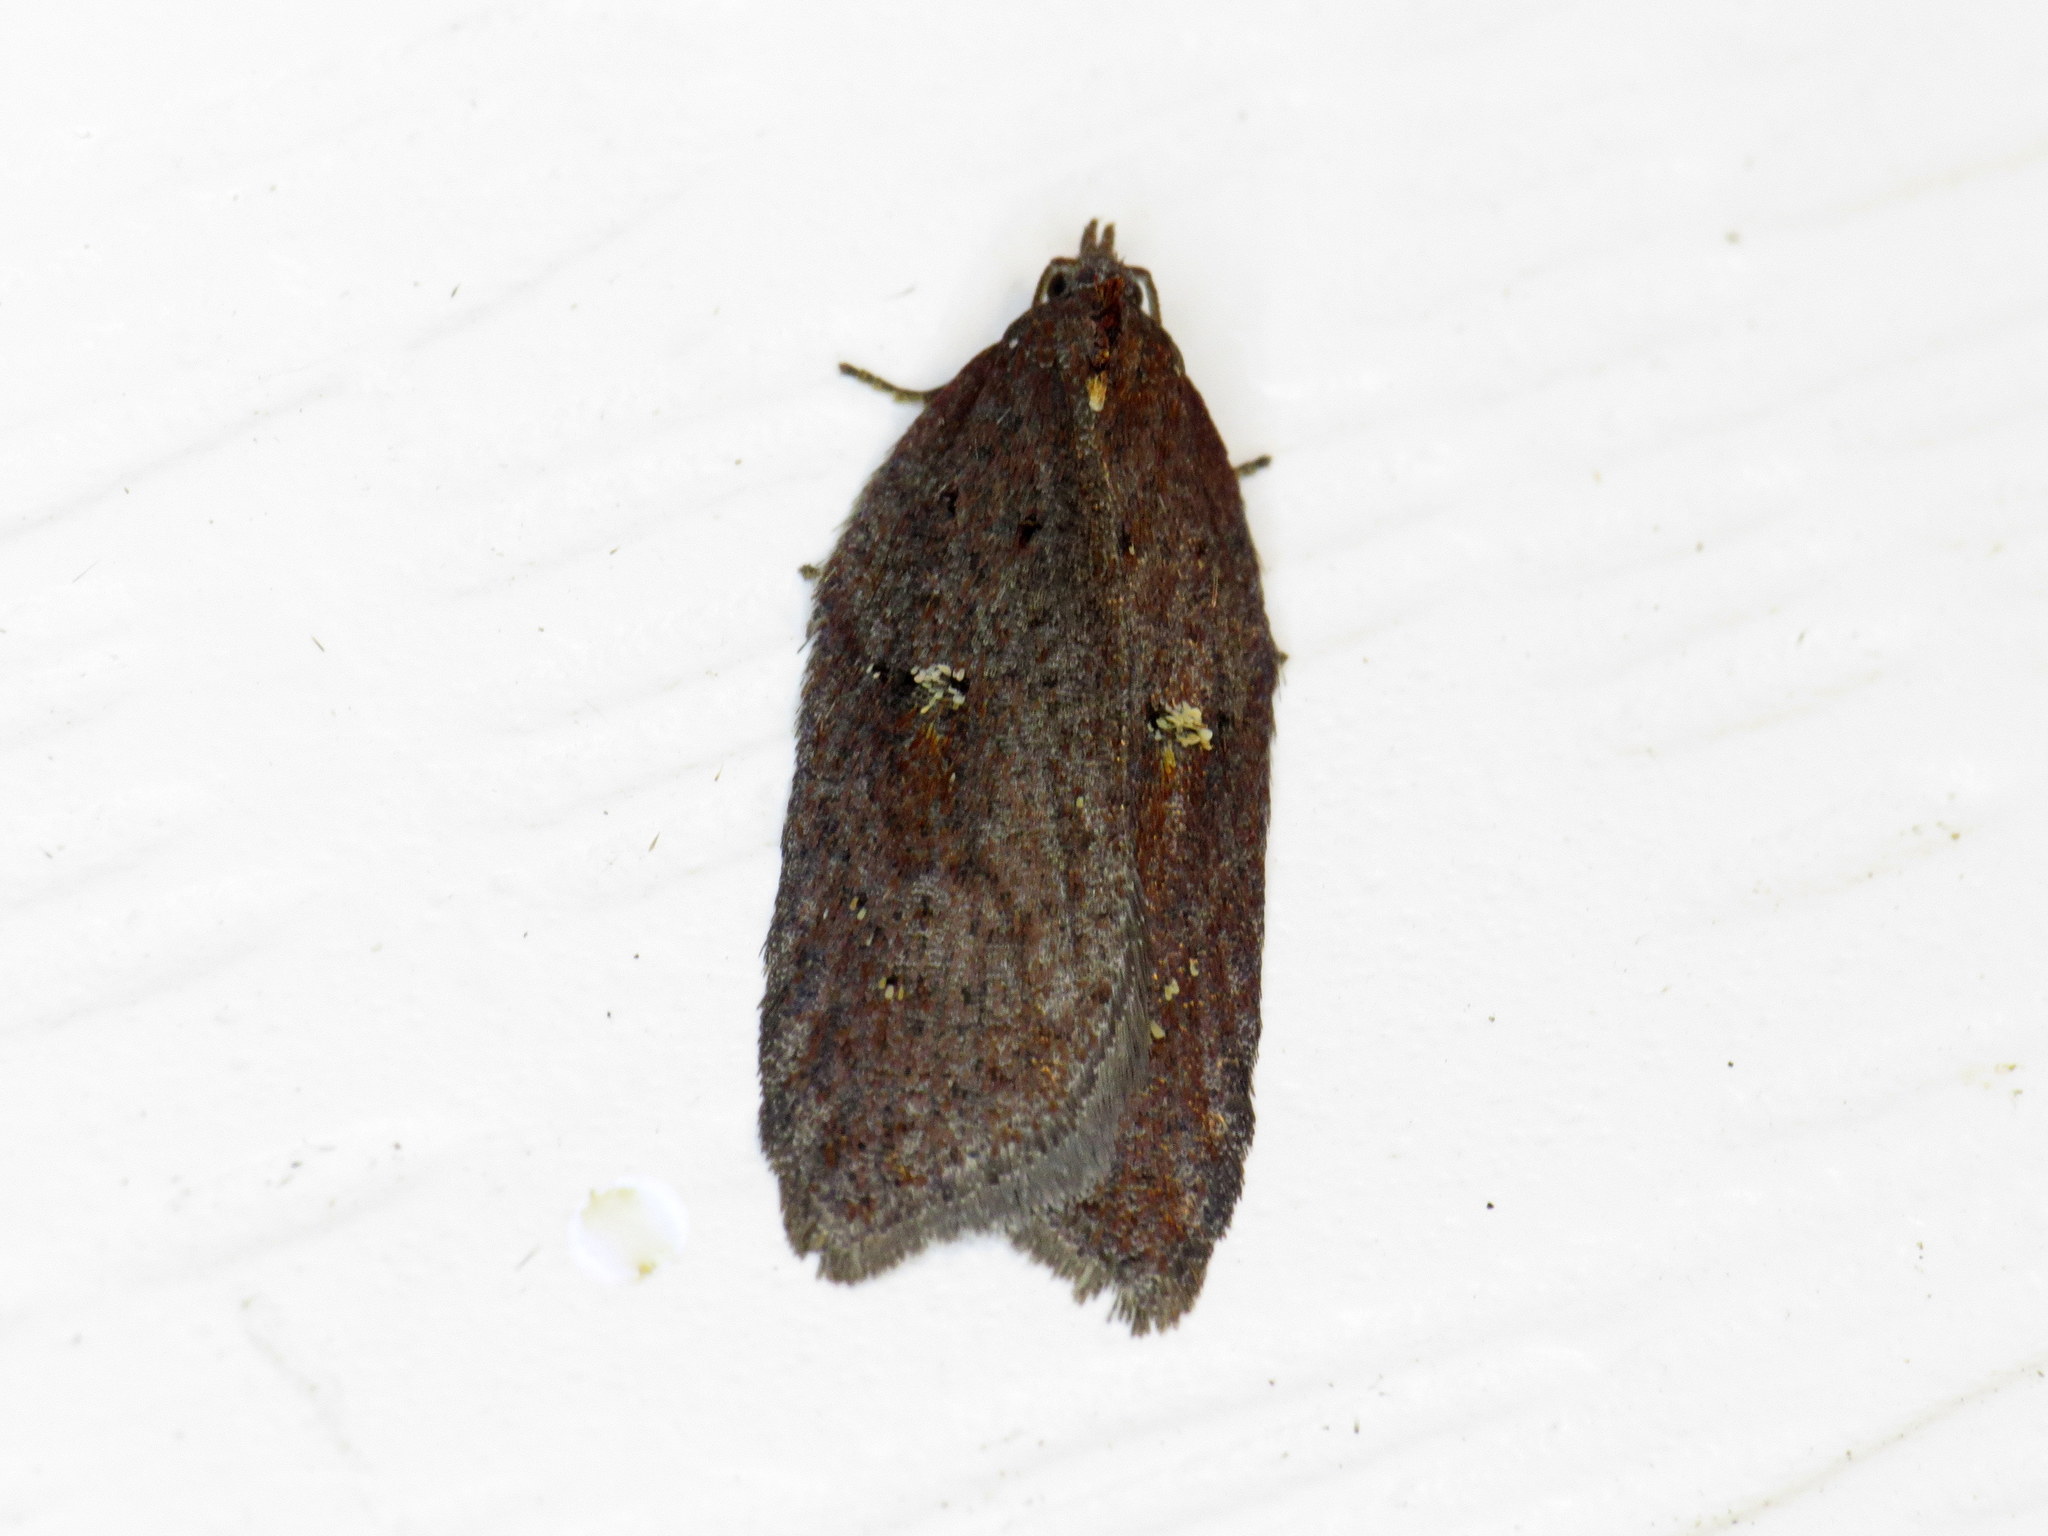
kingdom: Animalia
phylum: Arthropoda
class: Insecta
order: Lepidoptera
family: Tortricidae
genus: Acleris
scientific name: Acleris bowmanana
